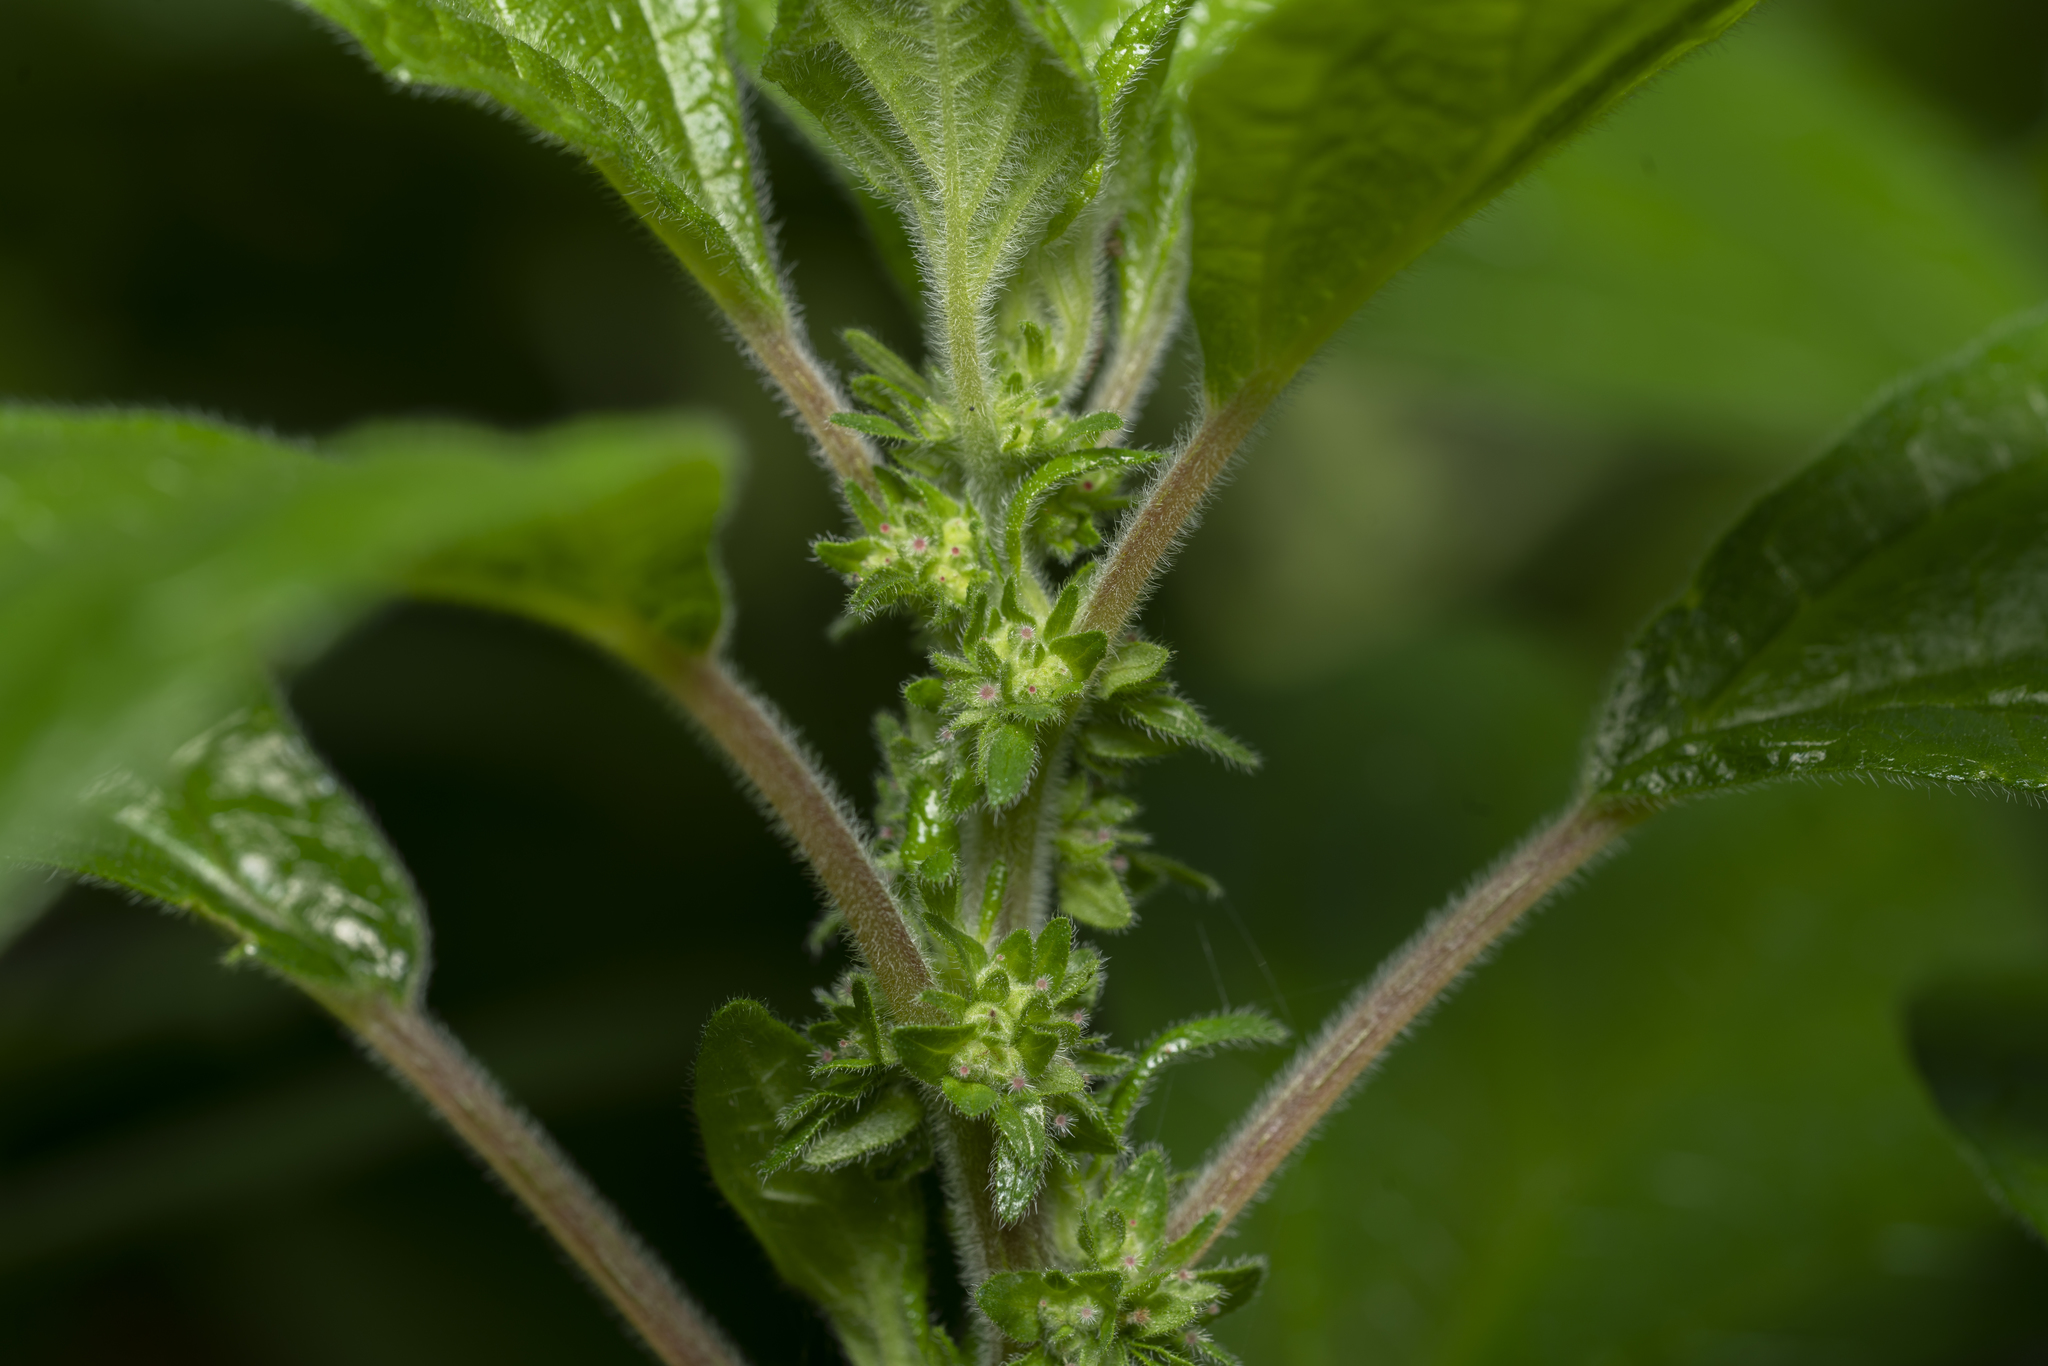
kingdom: Plantae
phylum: Tracheophyta
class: Magnoliopsida
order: Rosales
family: Urticaceae
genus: Parietaria
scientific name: Parietaria judaica
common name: Pellitory-of-the-wall
